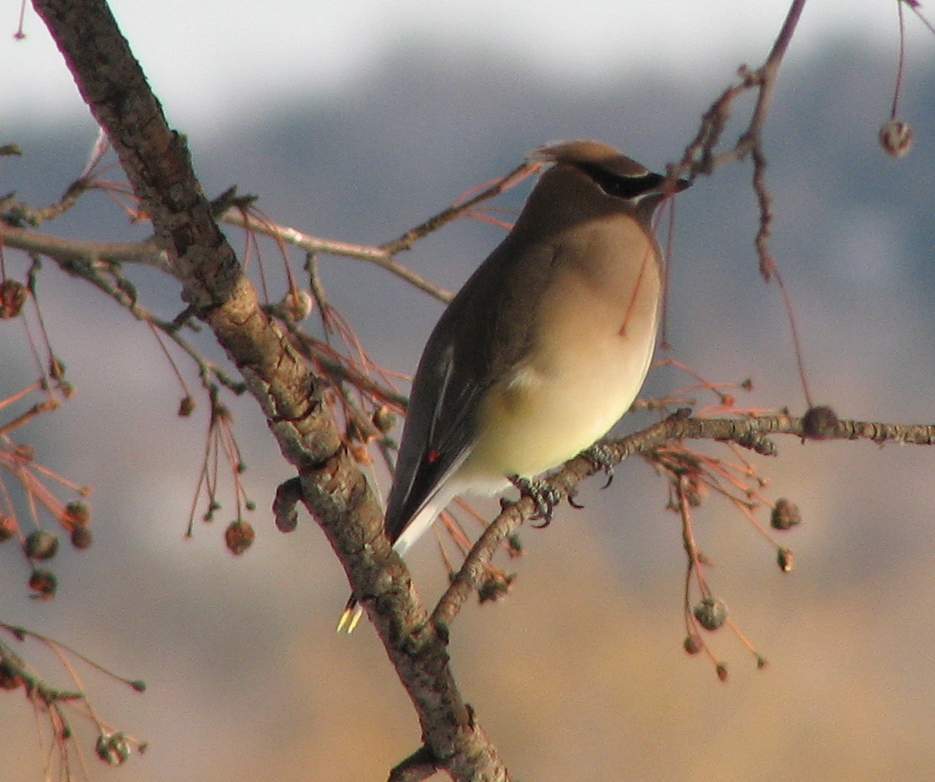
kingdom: Animalia
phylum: Chordata
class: Aves
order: Passeriformes
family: Bombycillidae
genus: Bombycilla
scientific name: Bombycilla cedrorum
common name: Cedar waxwing
